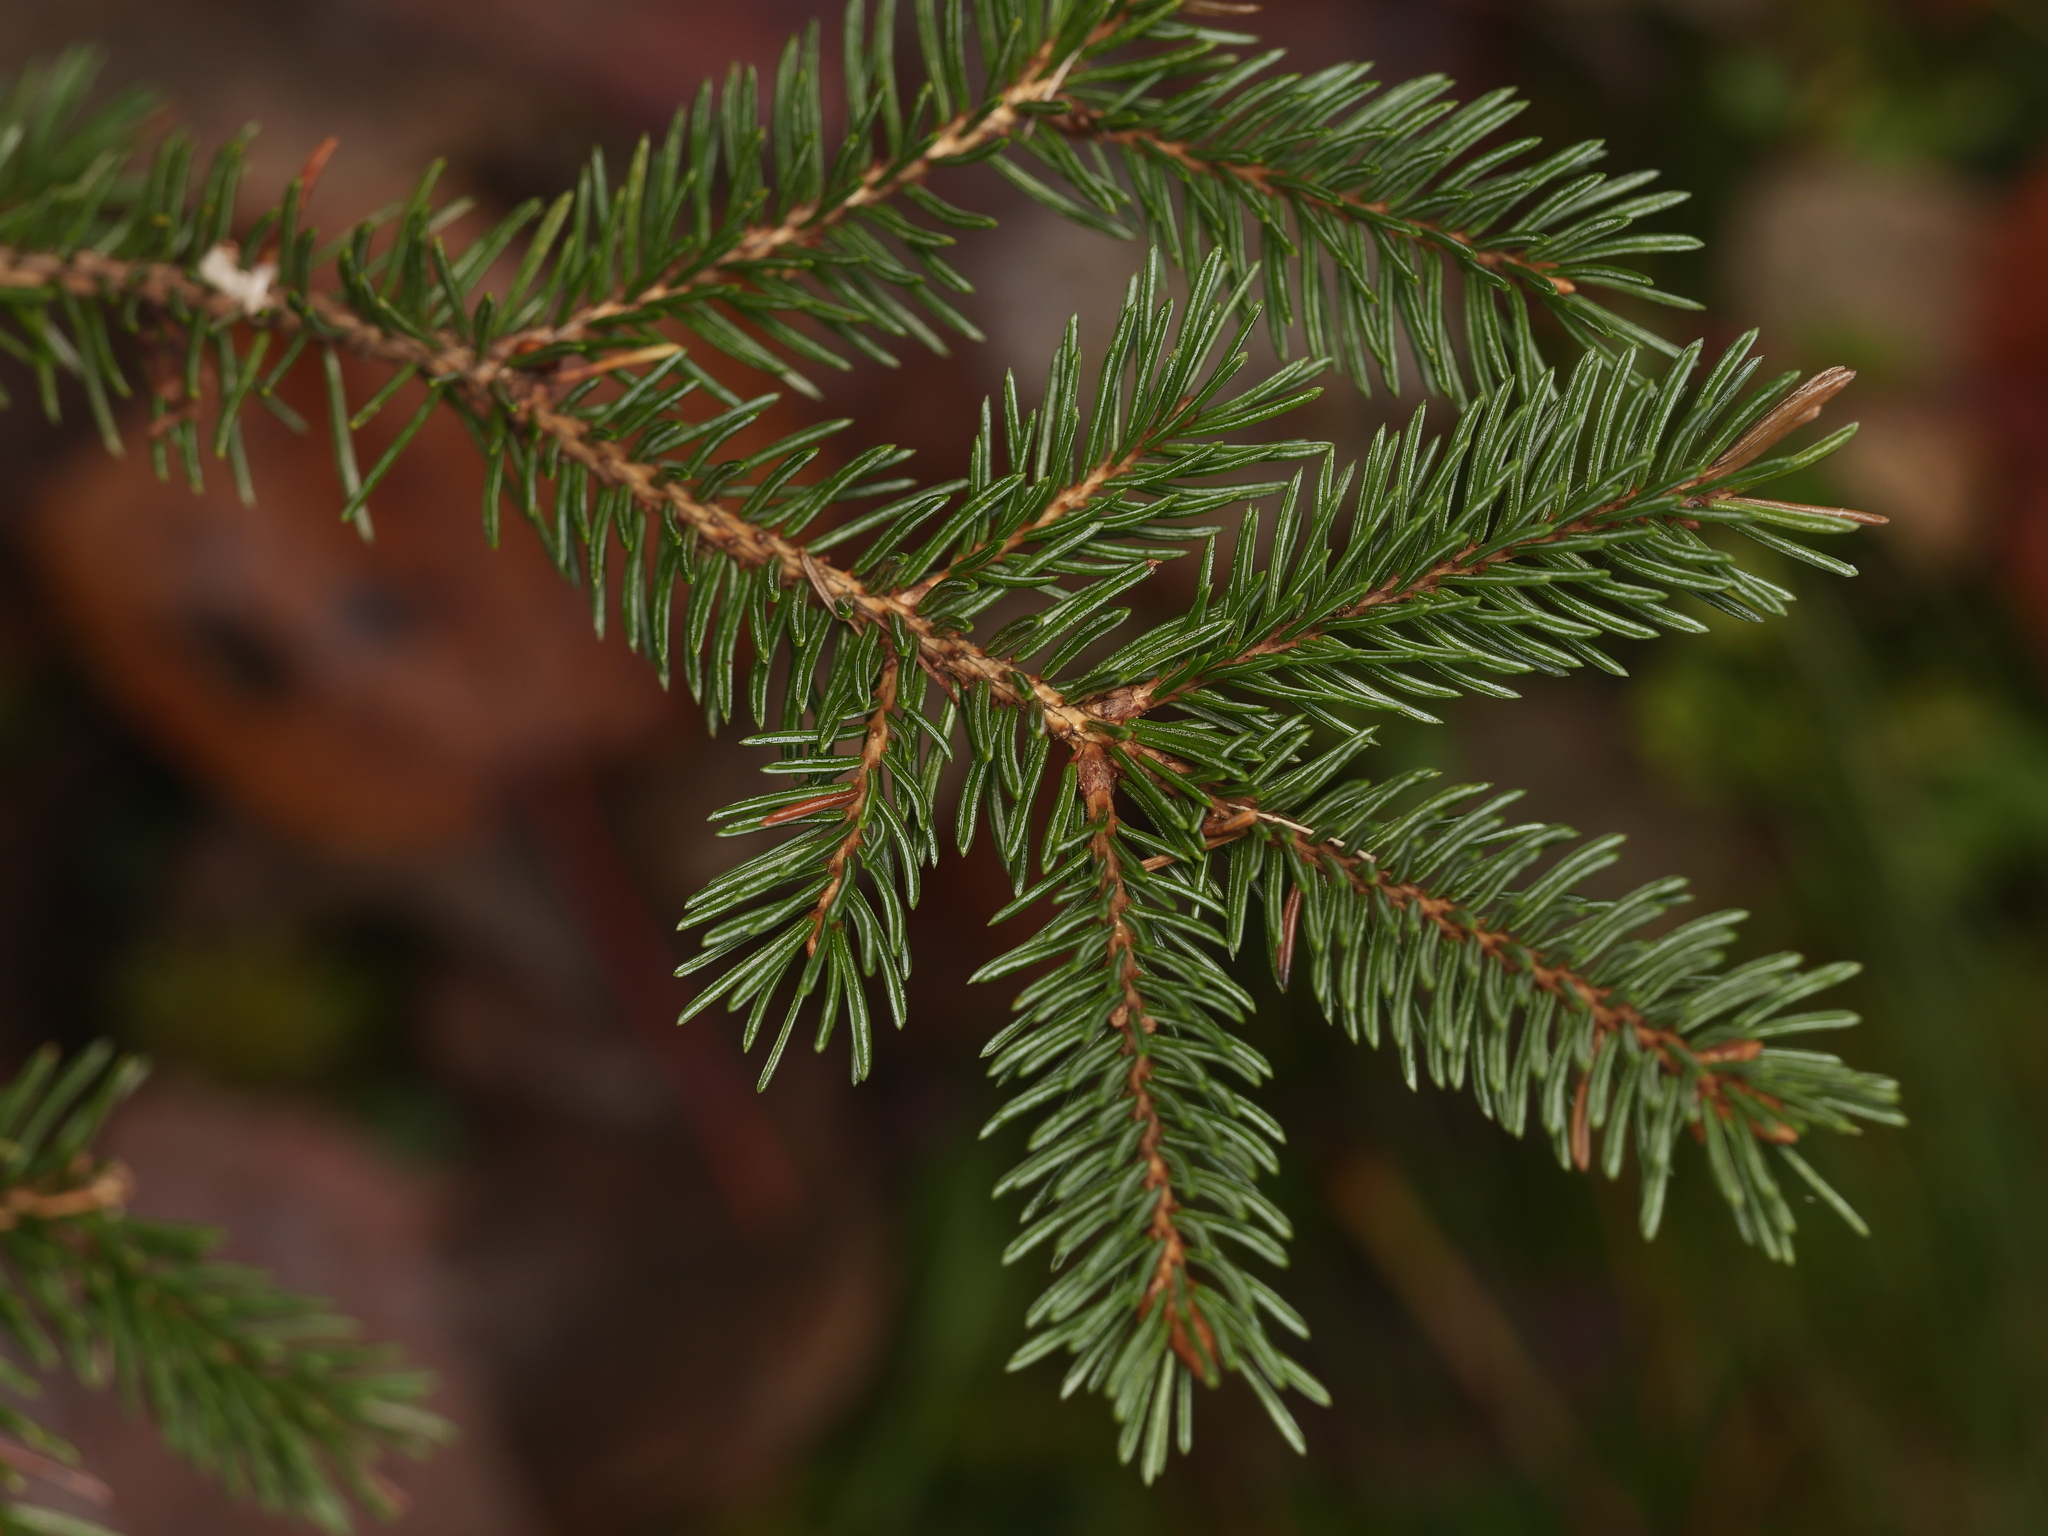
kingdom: Plantae
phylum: Tracheophyta
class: Pinopsida
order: Pinales
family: Pinaceae
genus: Picea
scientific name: Picea rubens
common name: Red spruce
